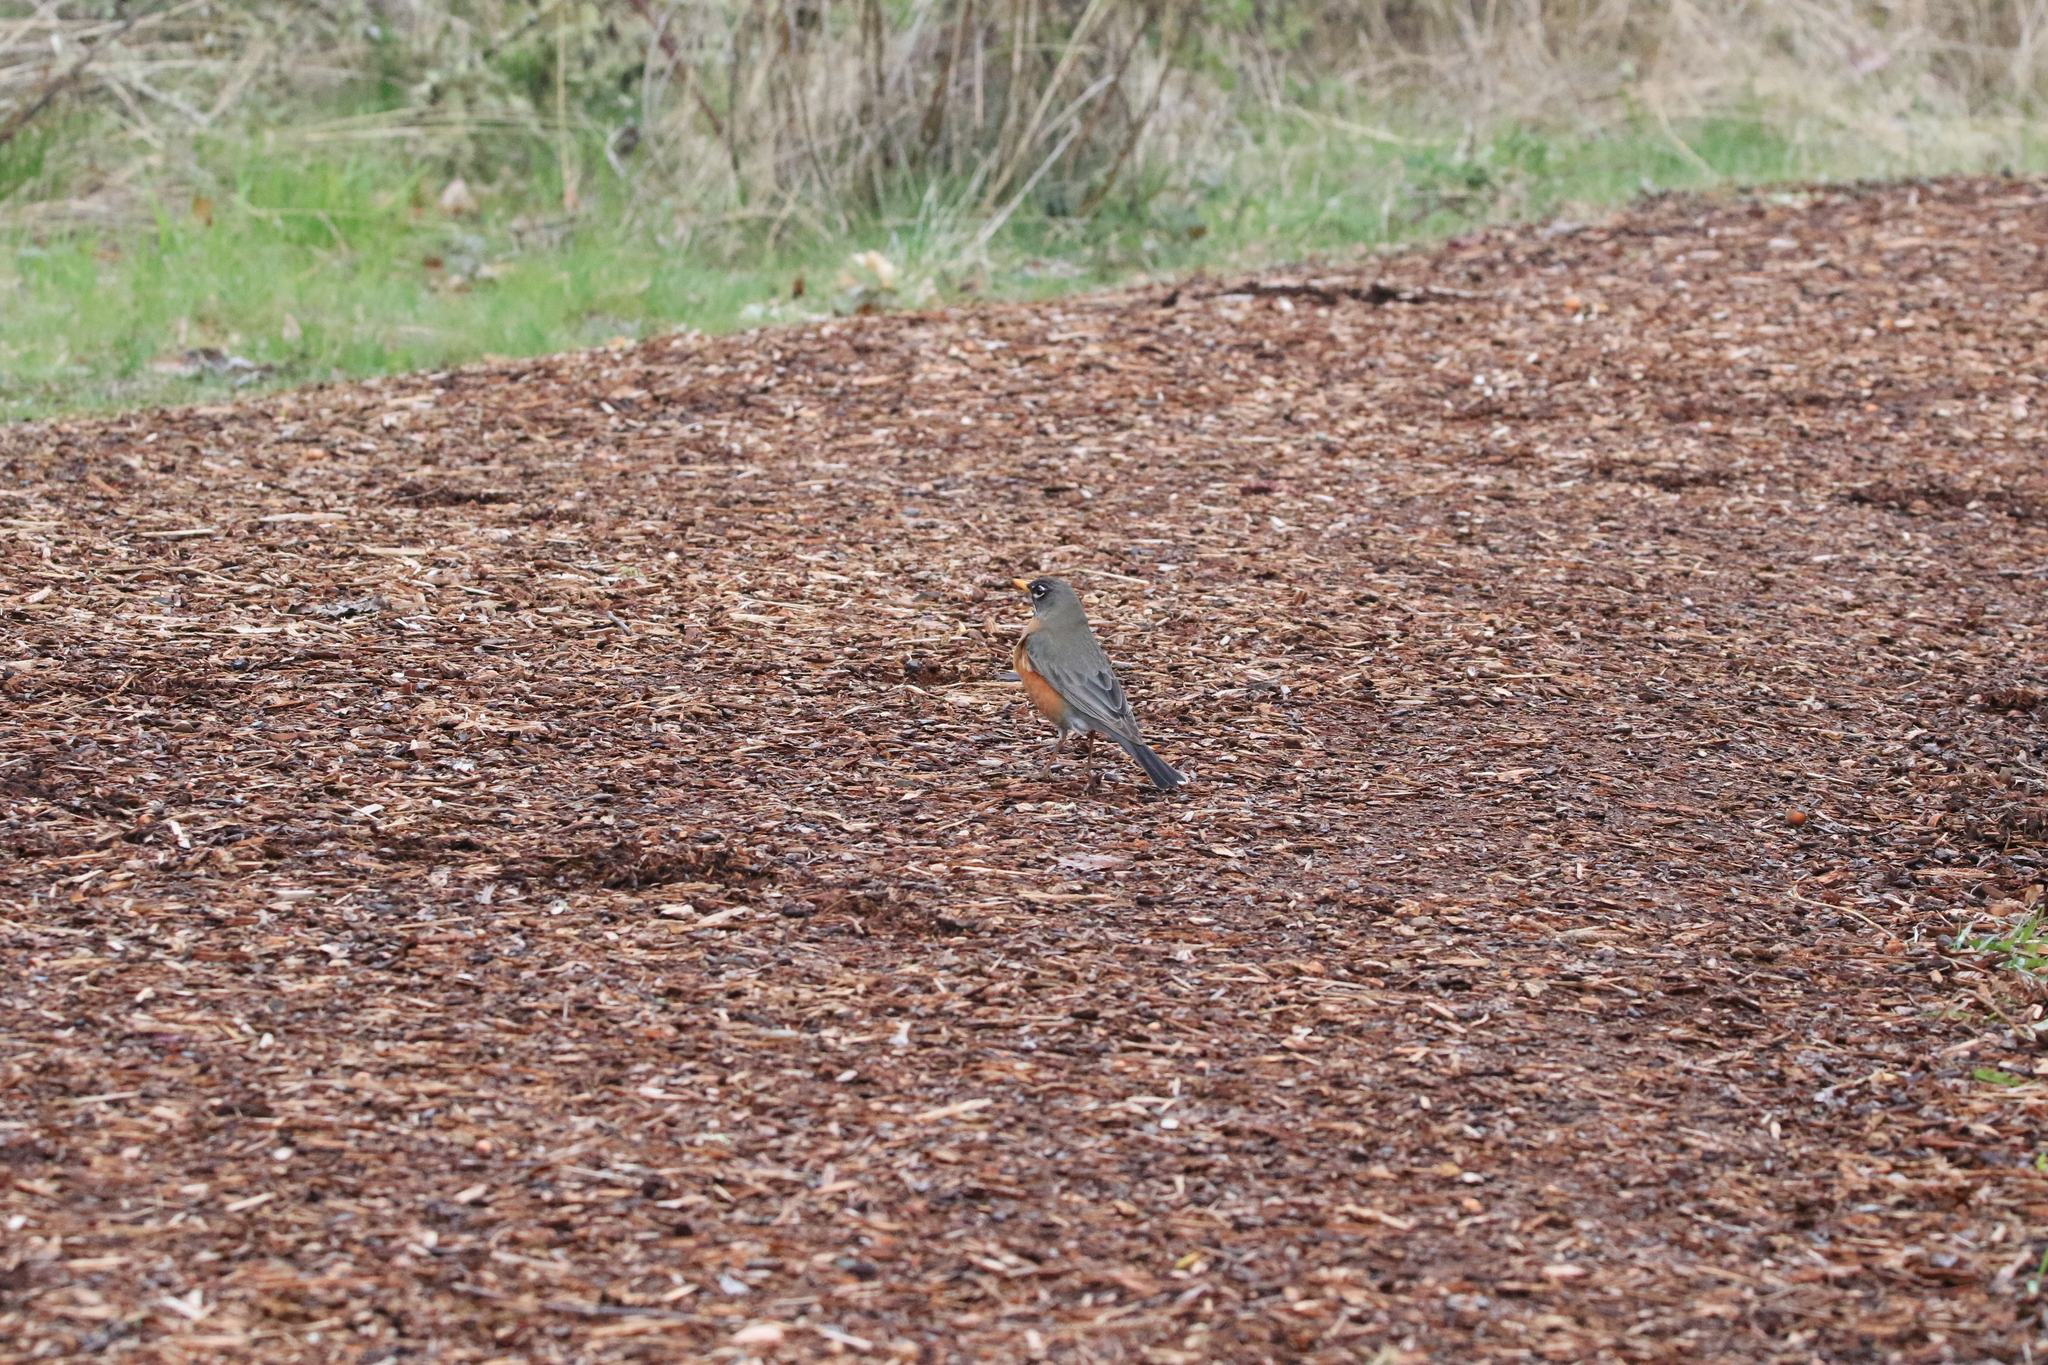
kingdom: Animalia
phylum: Chordata
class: Aves
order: Passeriformes
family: Turdidae
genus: Turdus
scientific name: Turdus migratorius
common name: American robin
